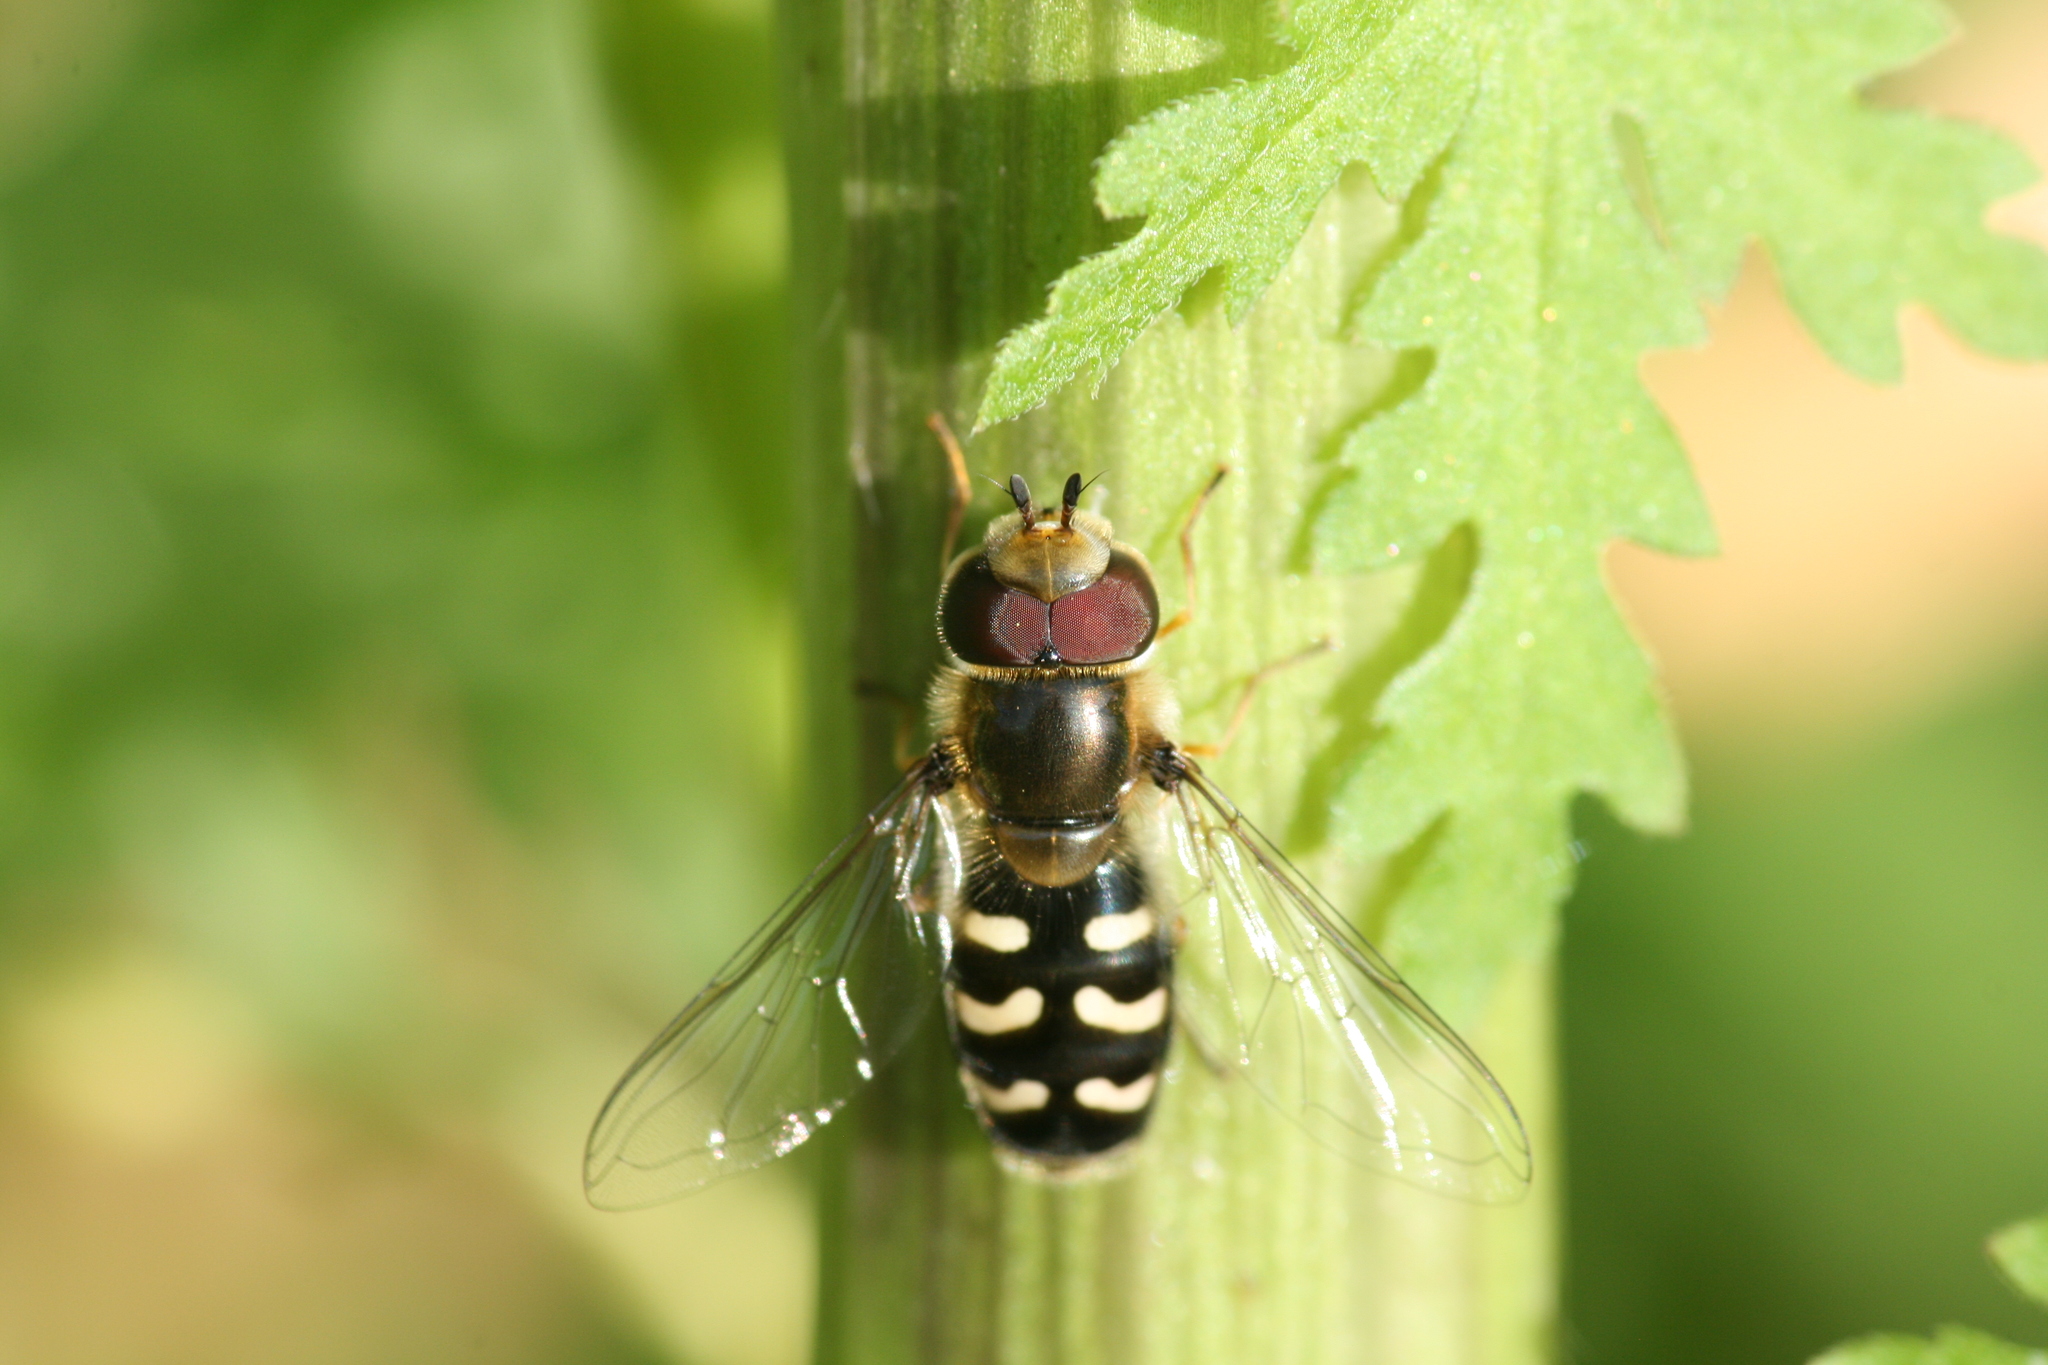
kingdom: Animalia
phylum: Arthropoda
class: Insecta
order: Diptera
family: Syrphidae
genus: Scaeva
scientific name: Scaeva pyrastri
